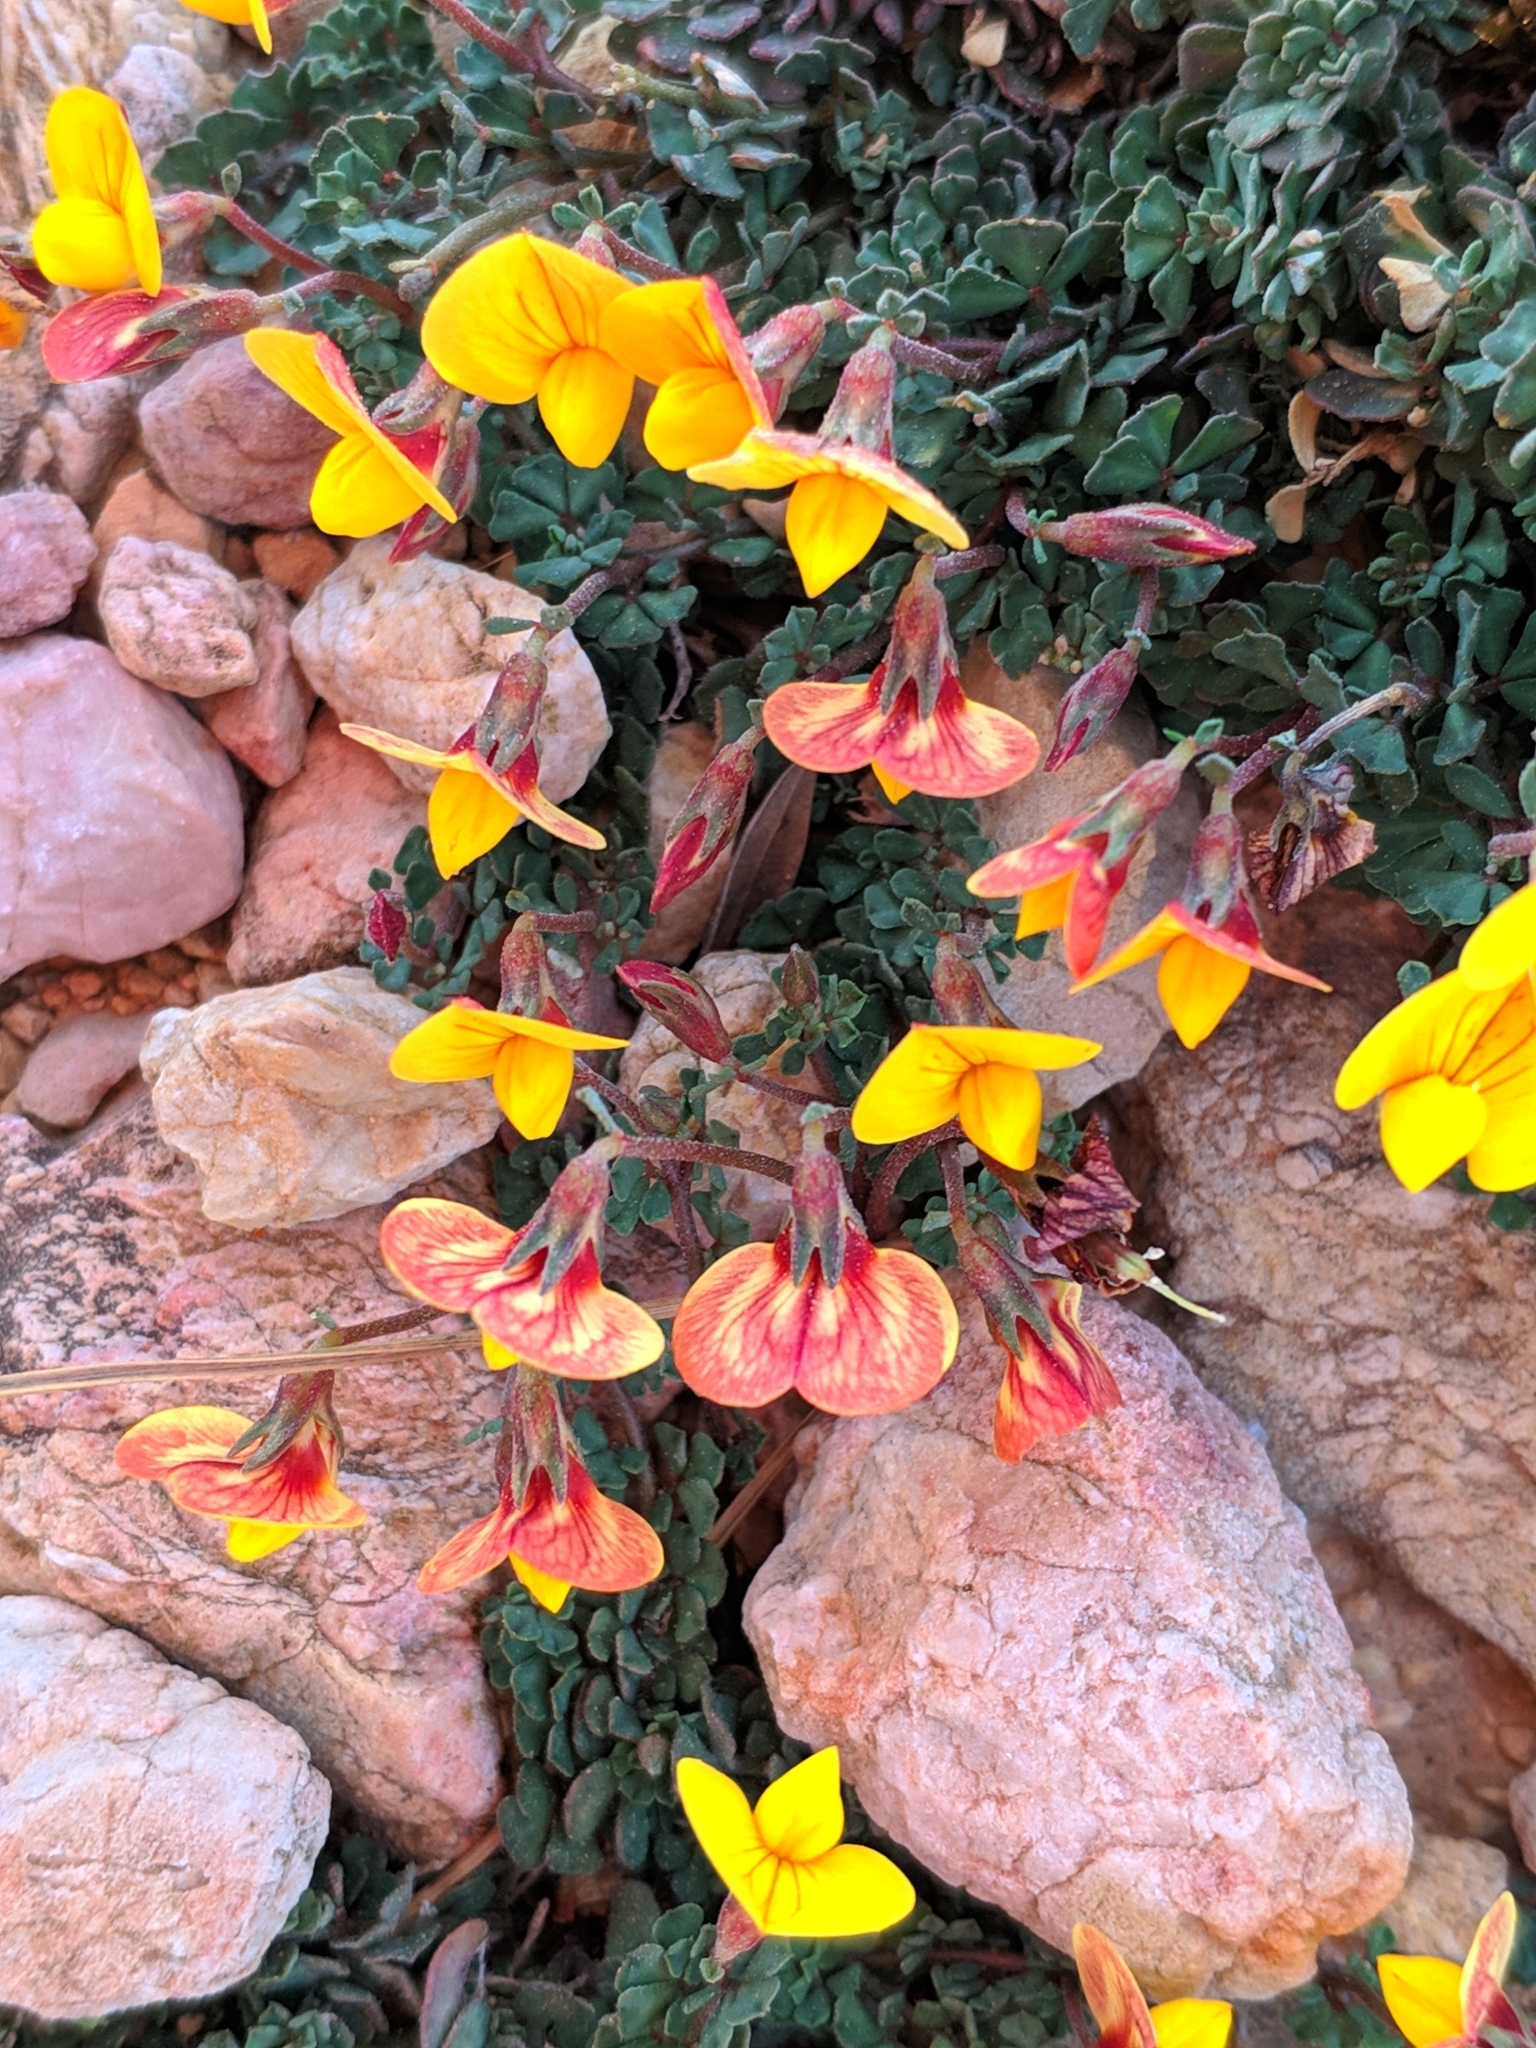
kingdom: Plantae
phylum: Tracheophyta
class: Magnoliopsida
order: Fabales
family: Fabaceae
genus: Lotus
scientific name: Lotus tetraphyllus
